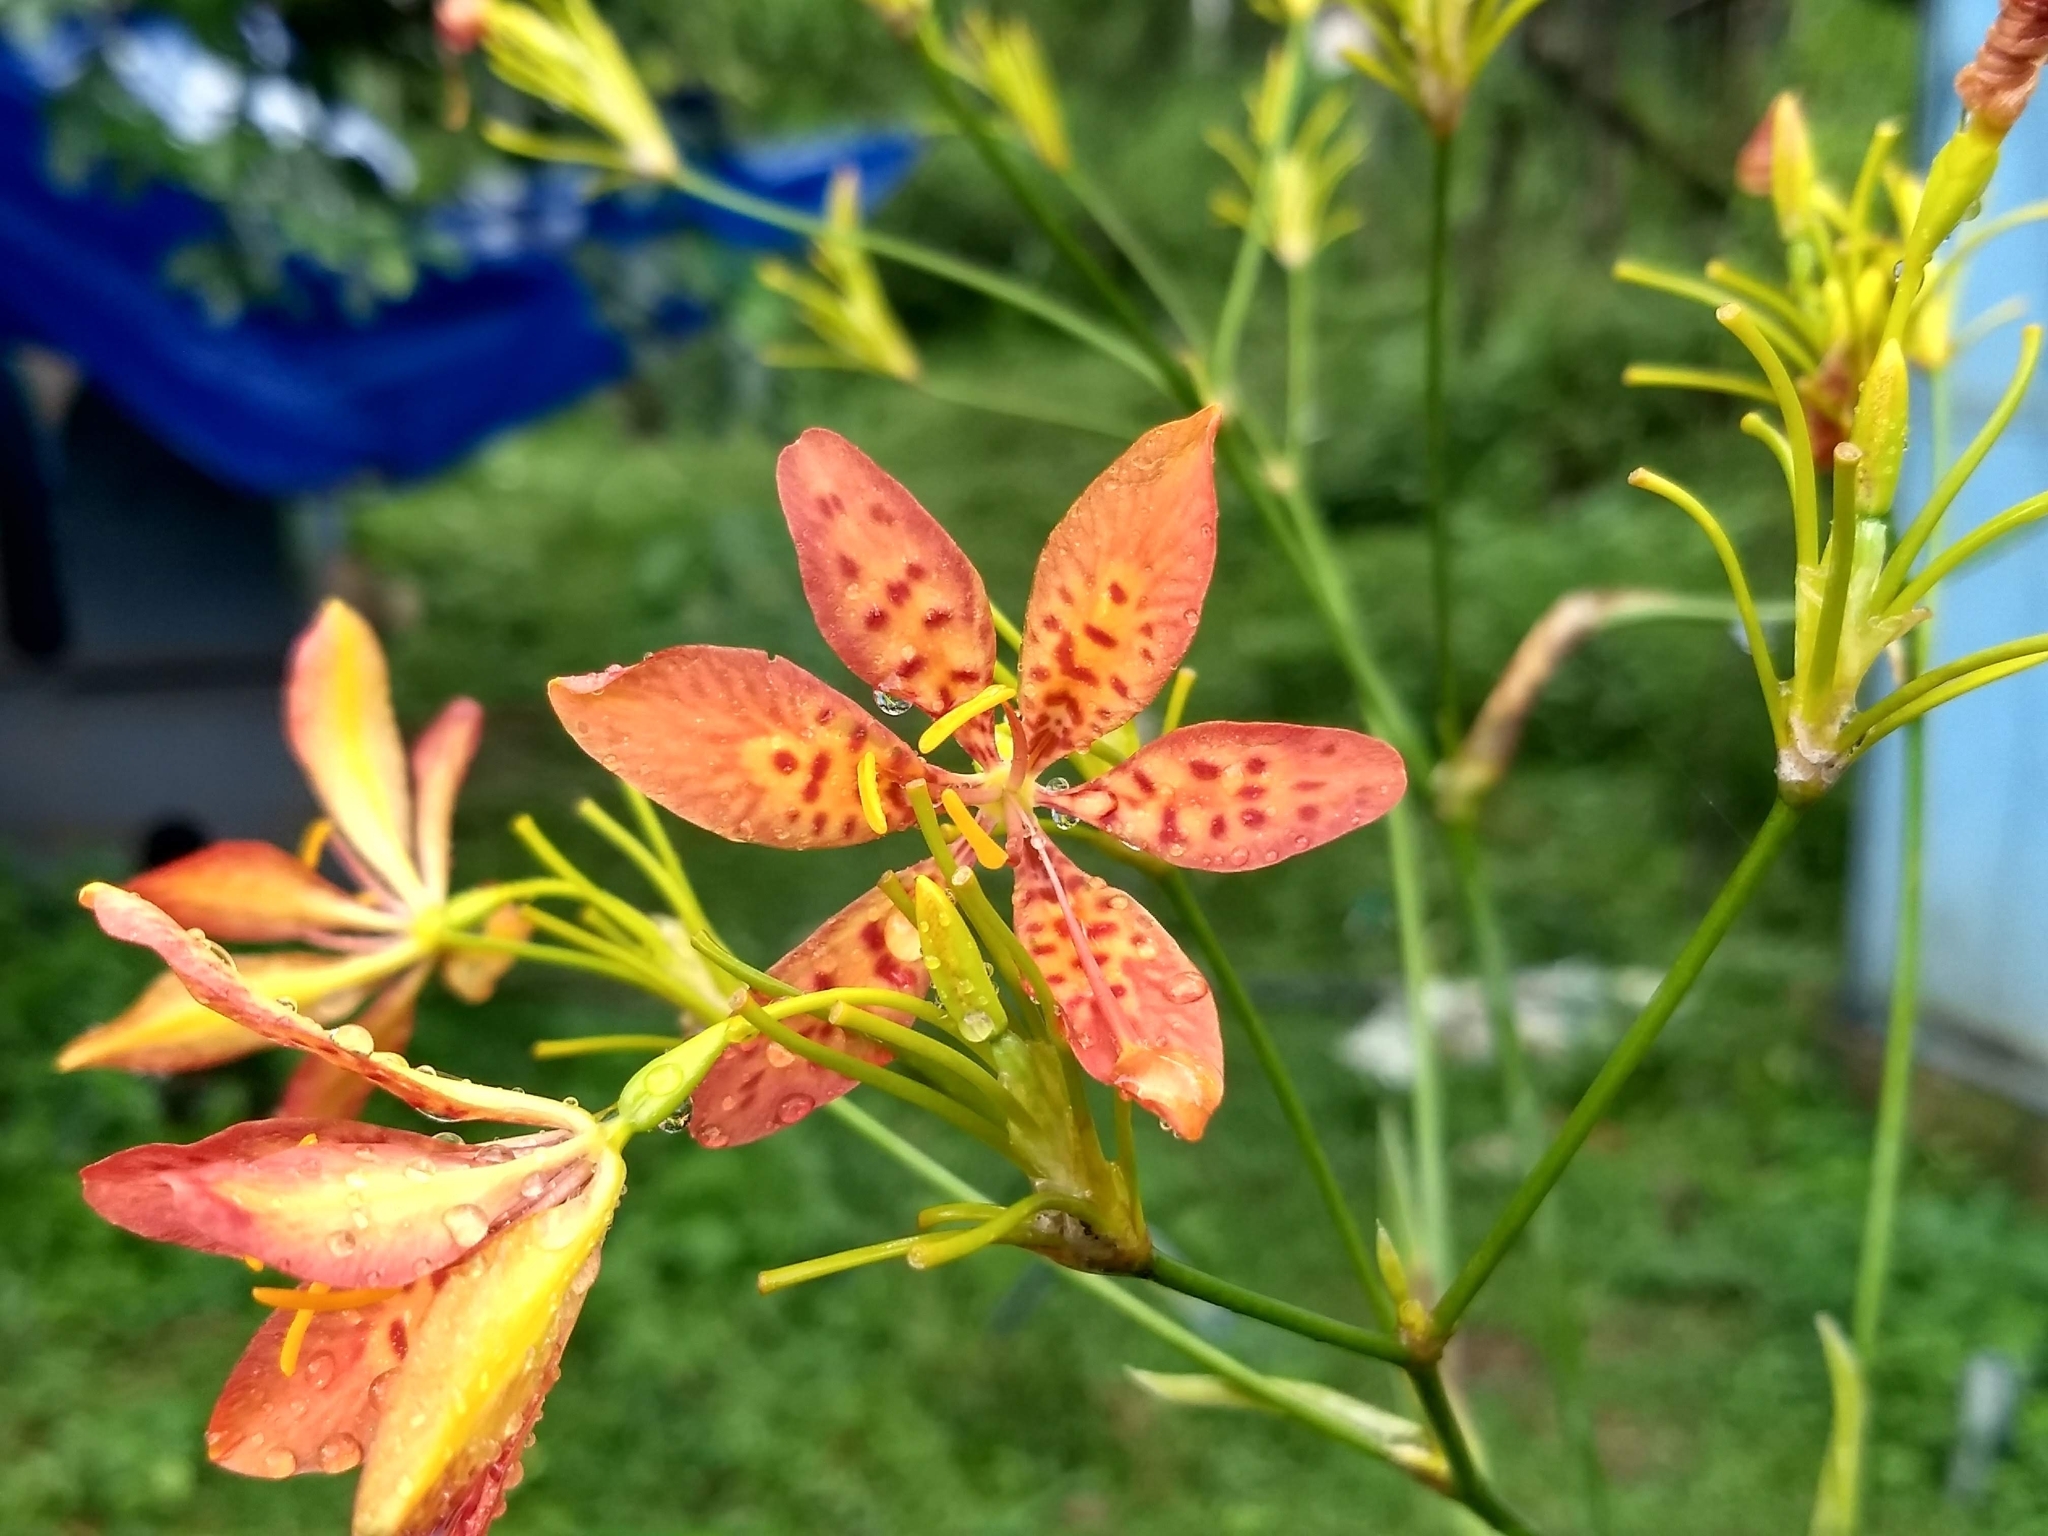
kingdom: Plantae
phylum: Tracheophyta
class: Liliopsida
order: Asparagales
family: Iridaceae
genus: Iris
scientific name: Iris domestica
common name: Belamcanda
